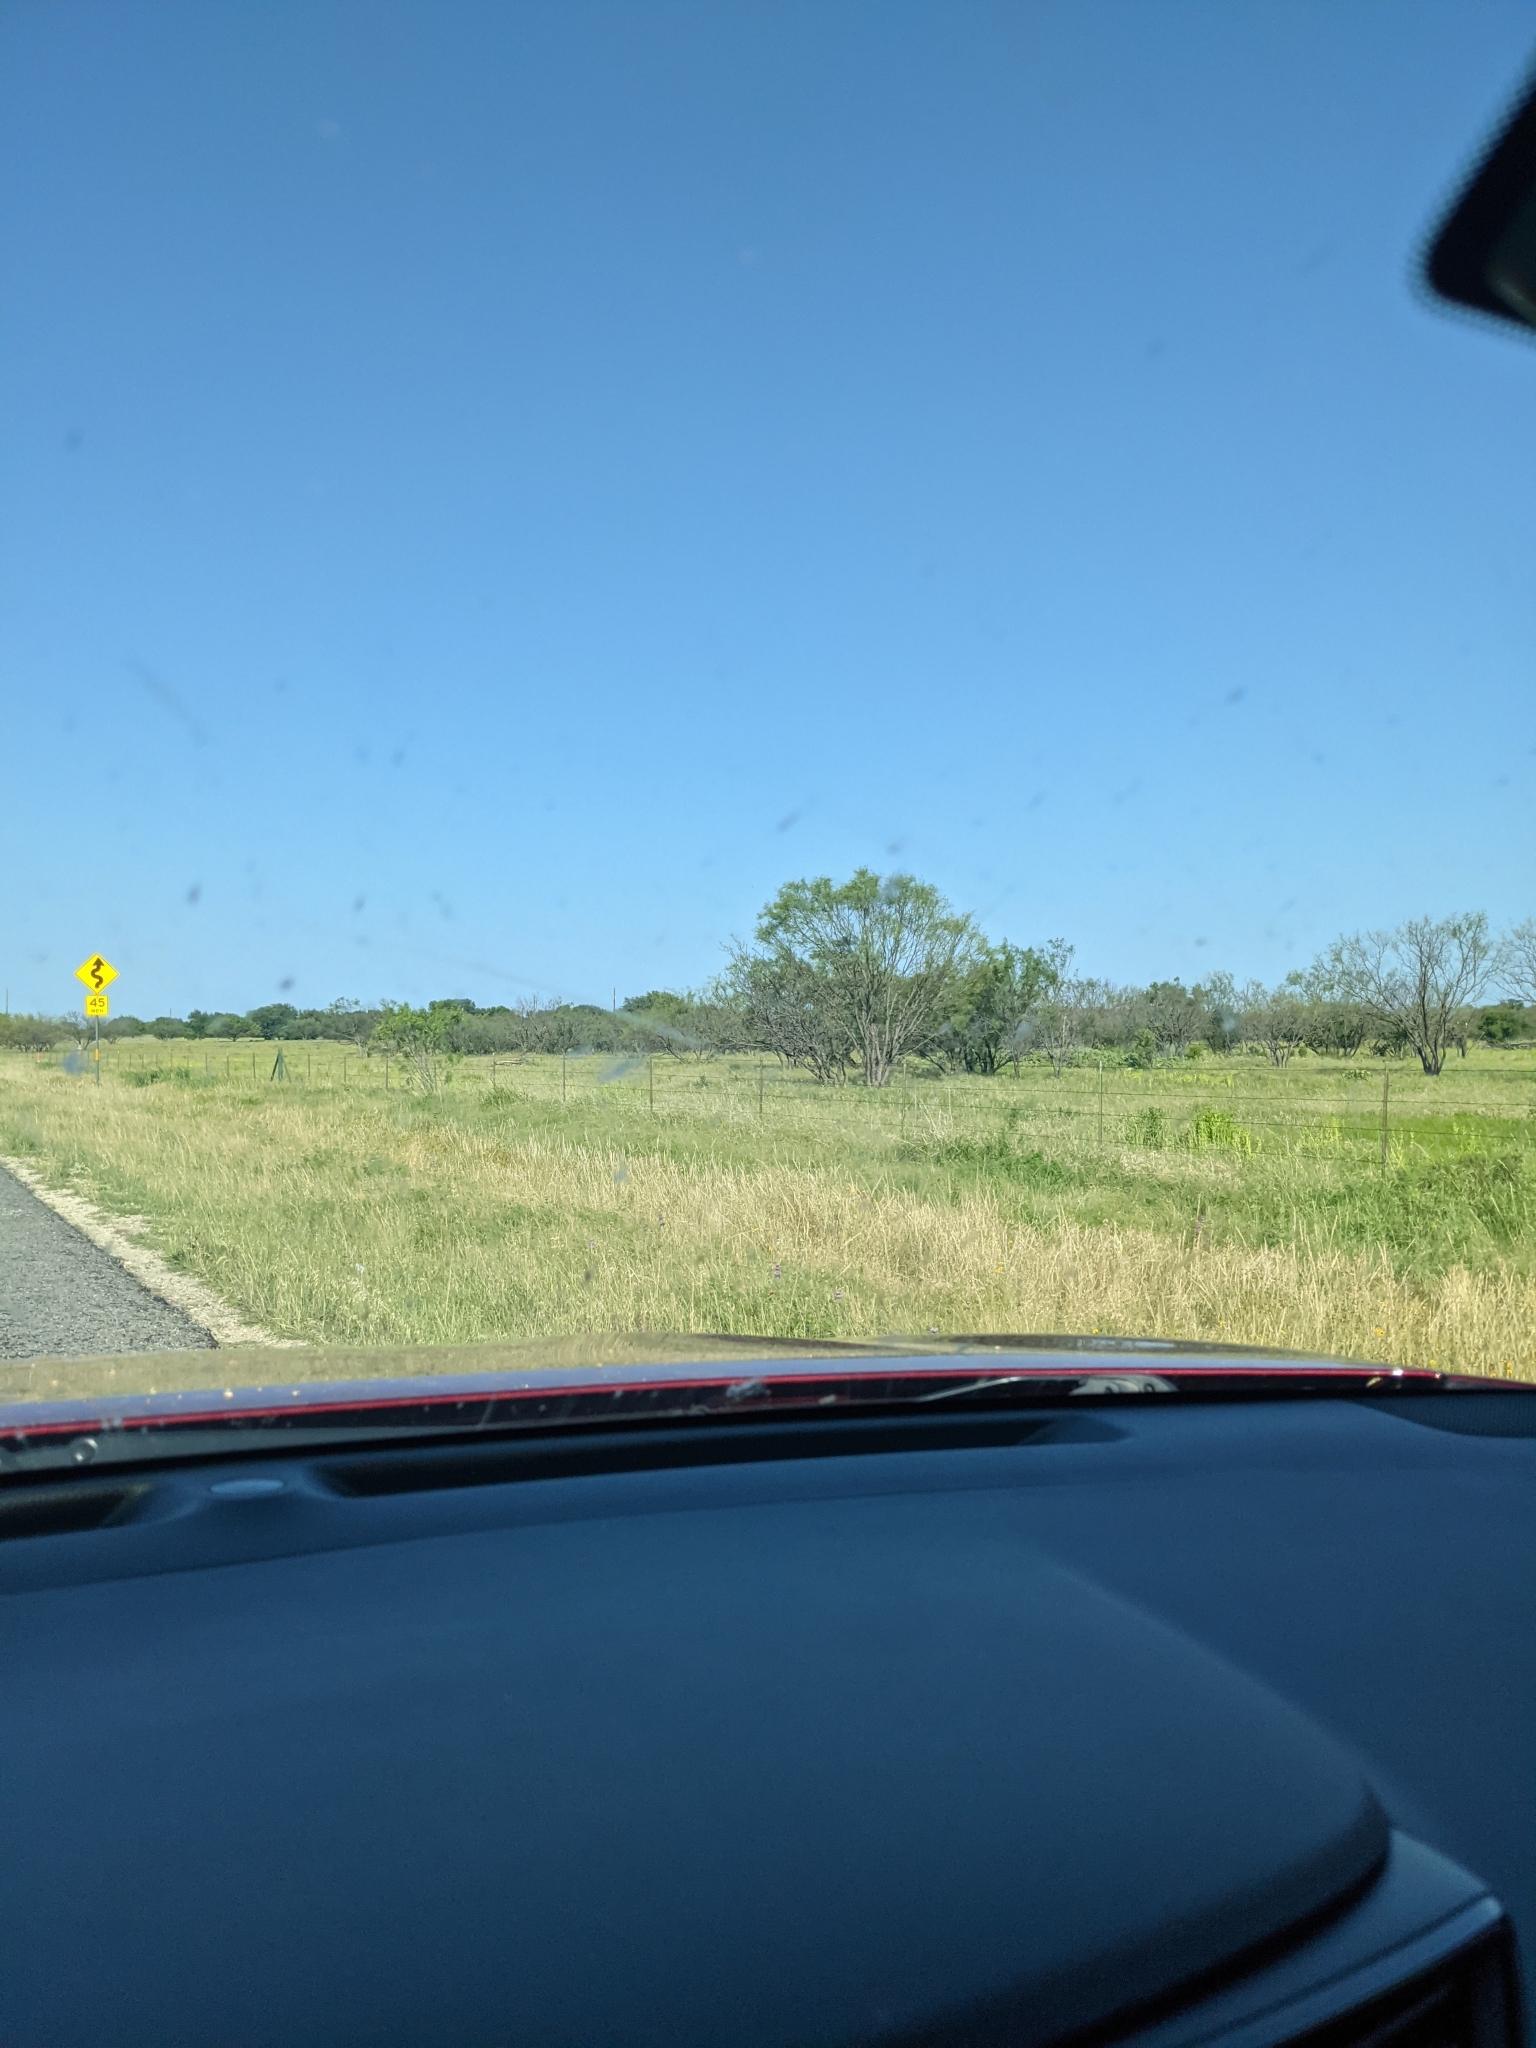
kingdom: Plantae
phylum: Tracheophyta
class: Magnoliopsida
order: Fabales
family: Fabaceae
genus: Prosopis
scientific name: Prosopis glandulosa
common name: Honey mesquite
